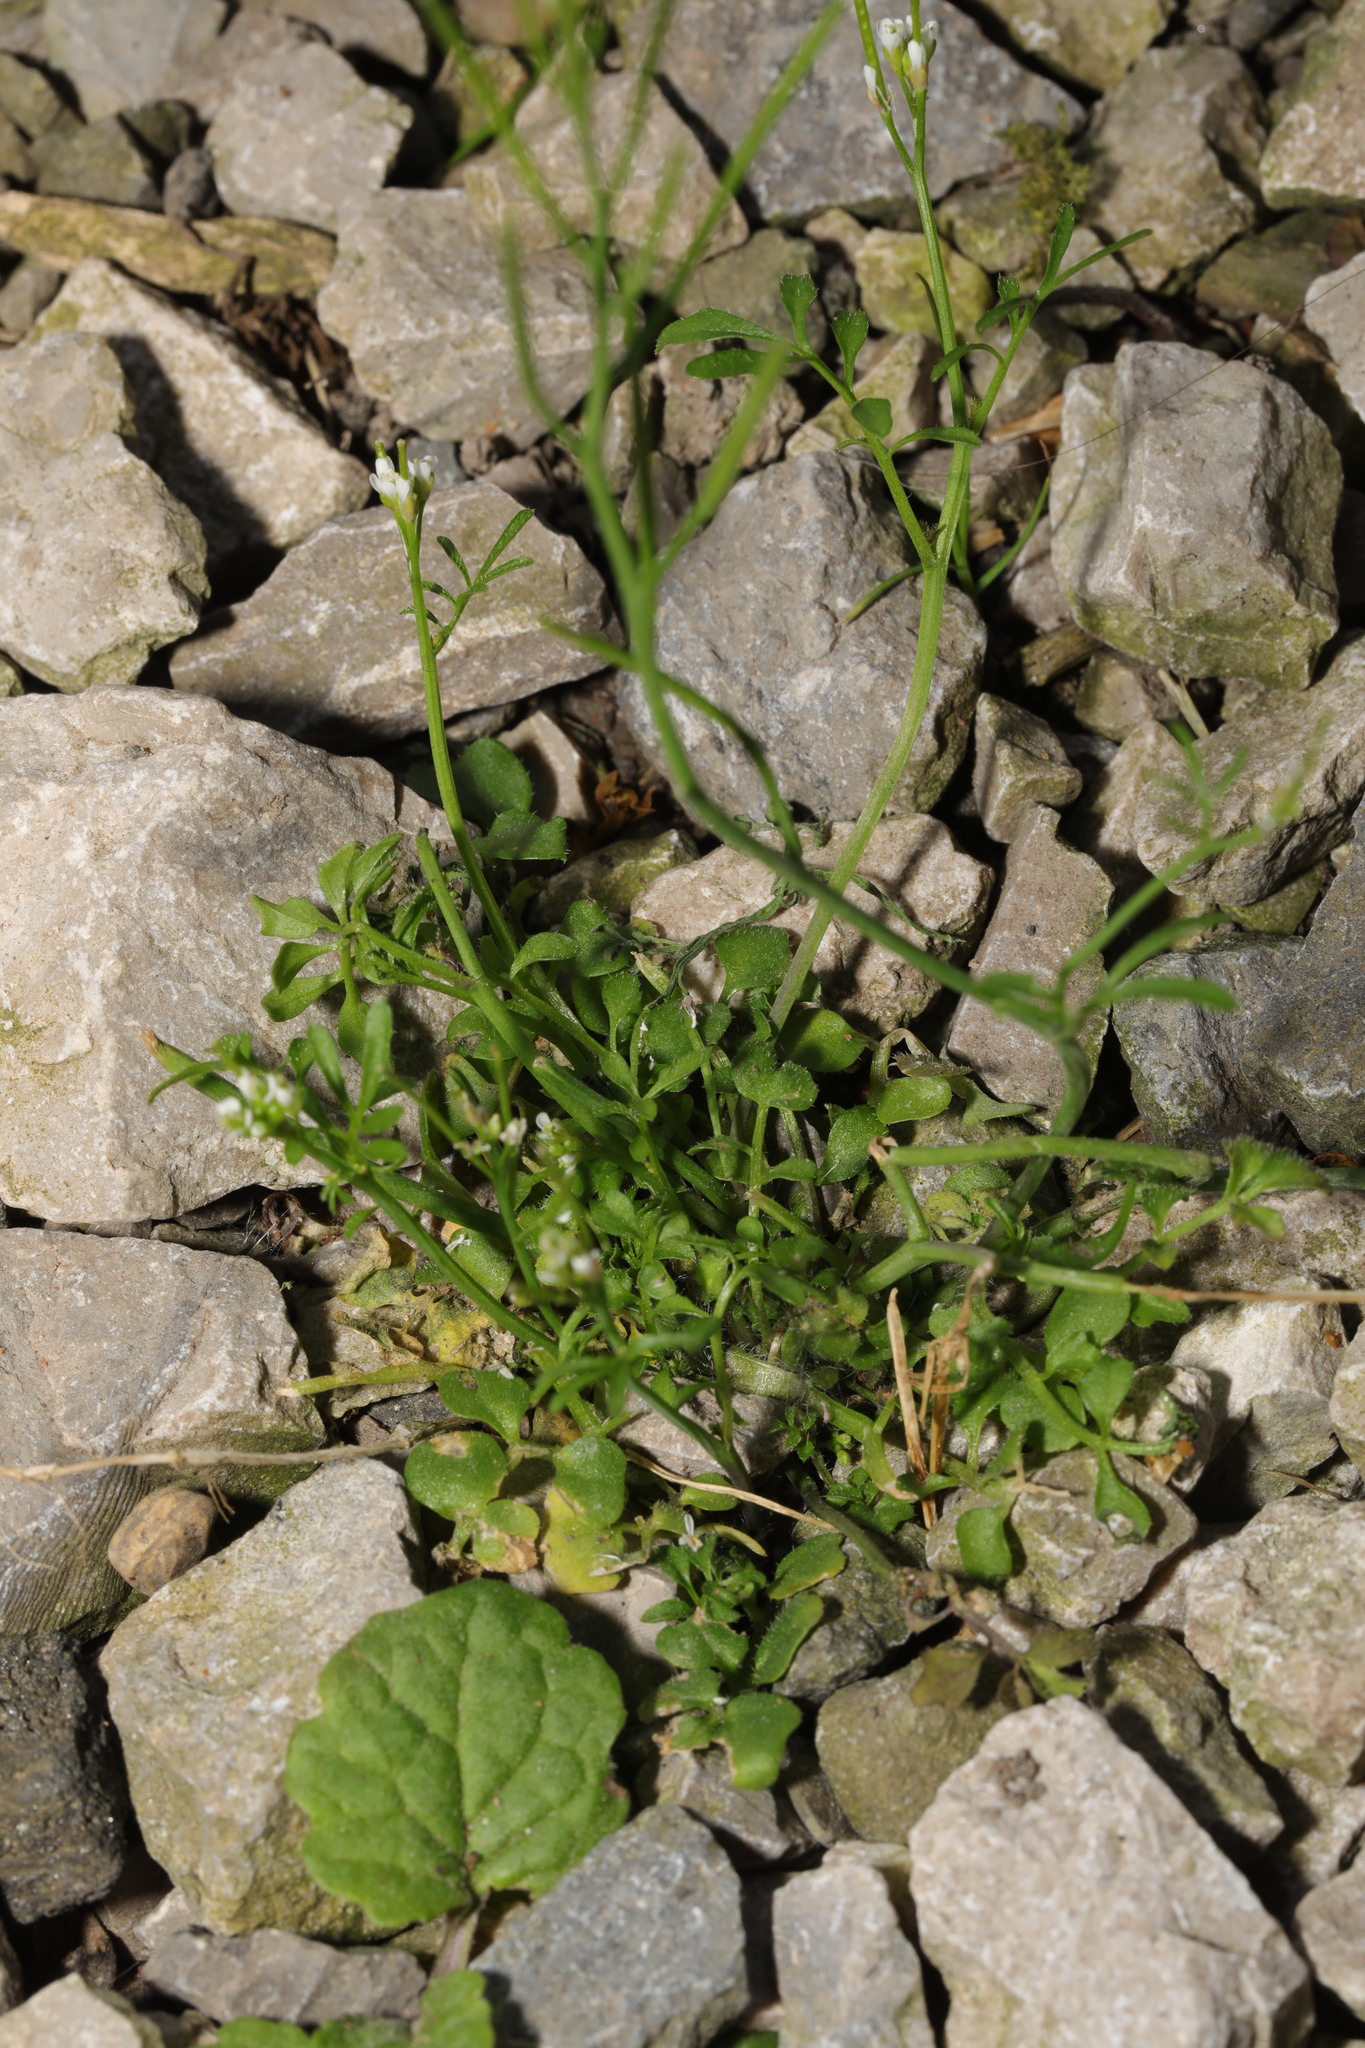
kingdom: Plantae
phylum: Tracheophyta
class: Magnoliopsida
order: Brassicales
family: Brassicaceae
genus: Cardamine
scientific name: Cardamine hirsuta
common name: Hairy bittercress
